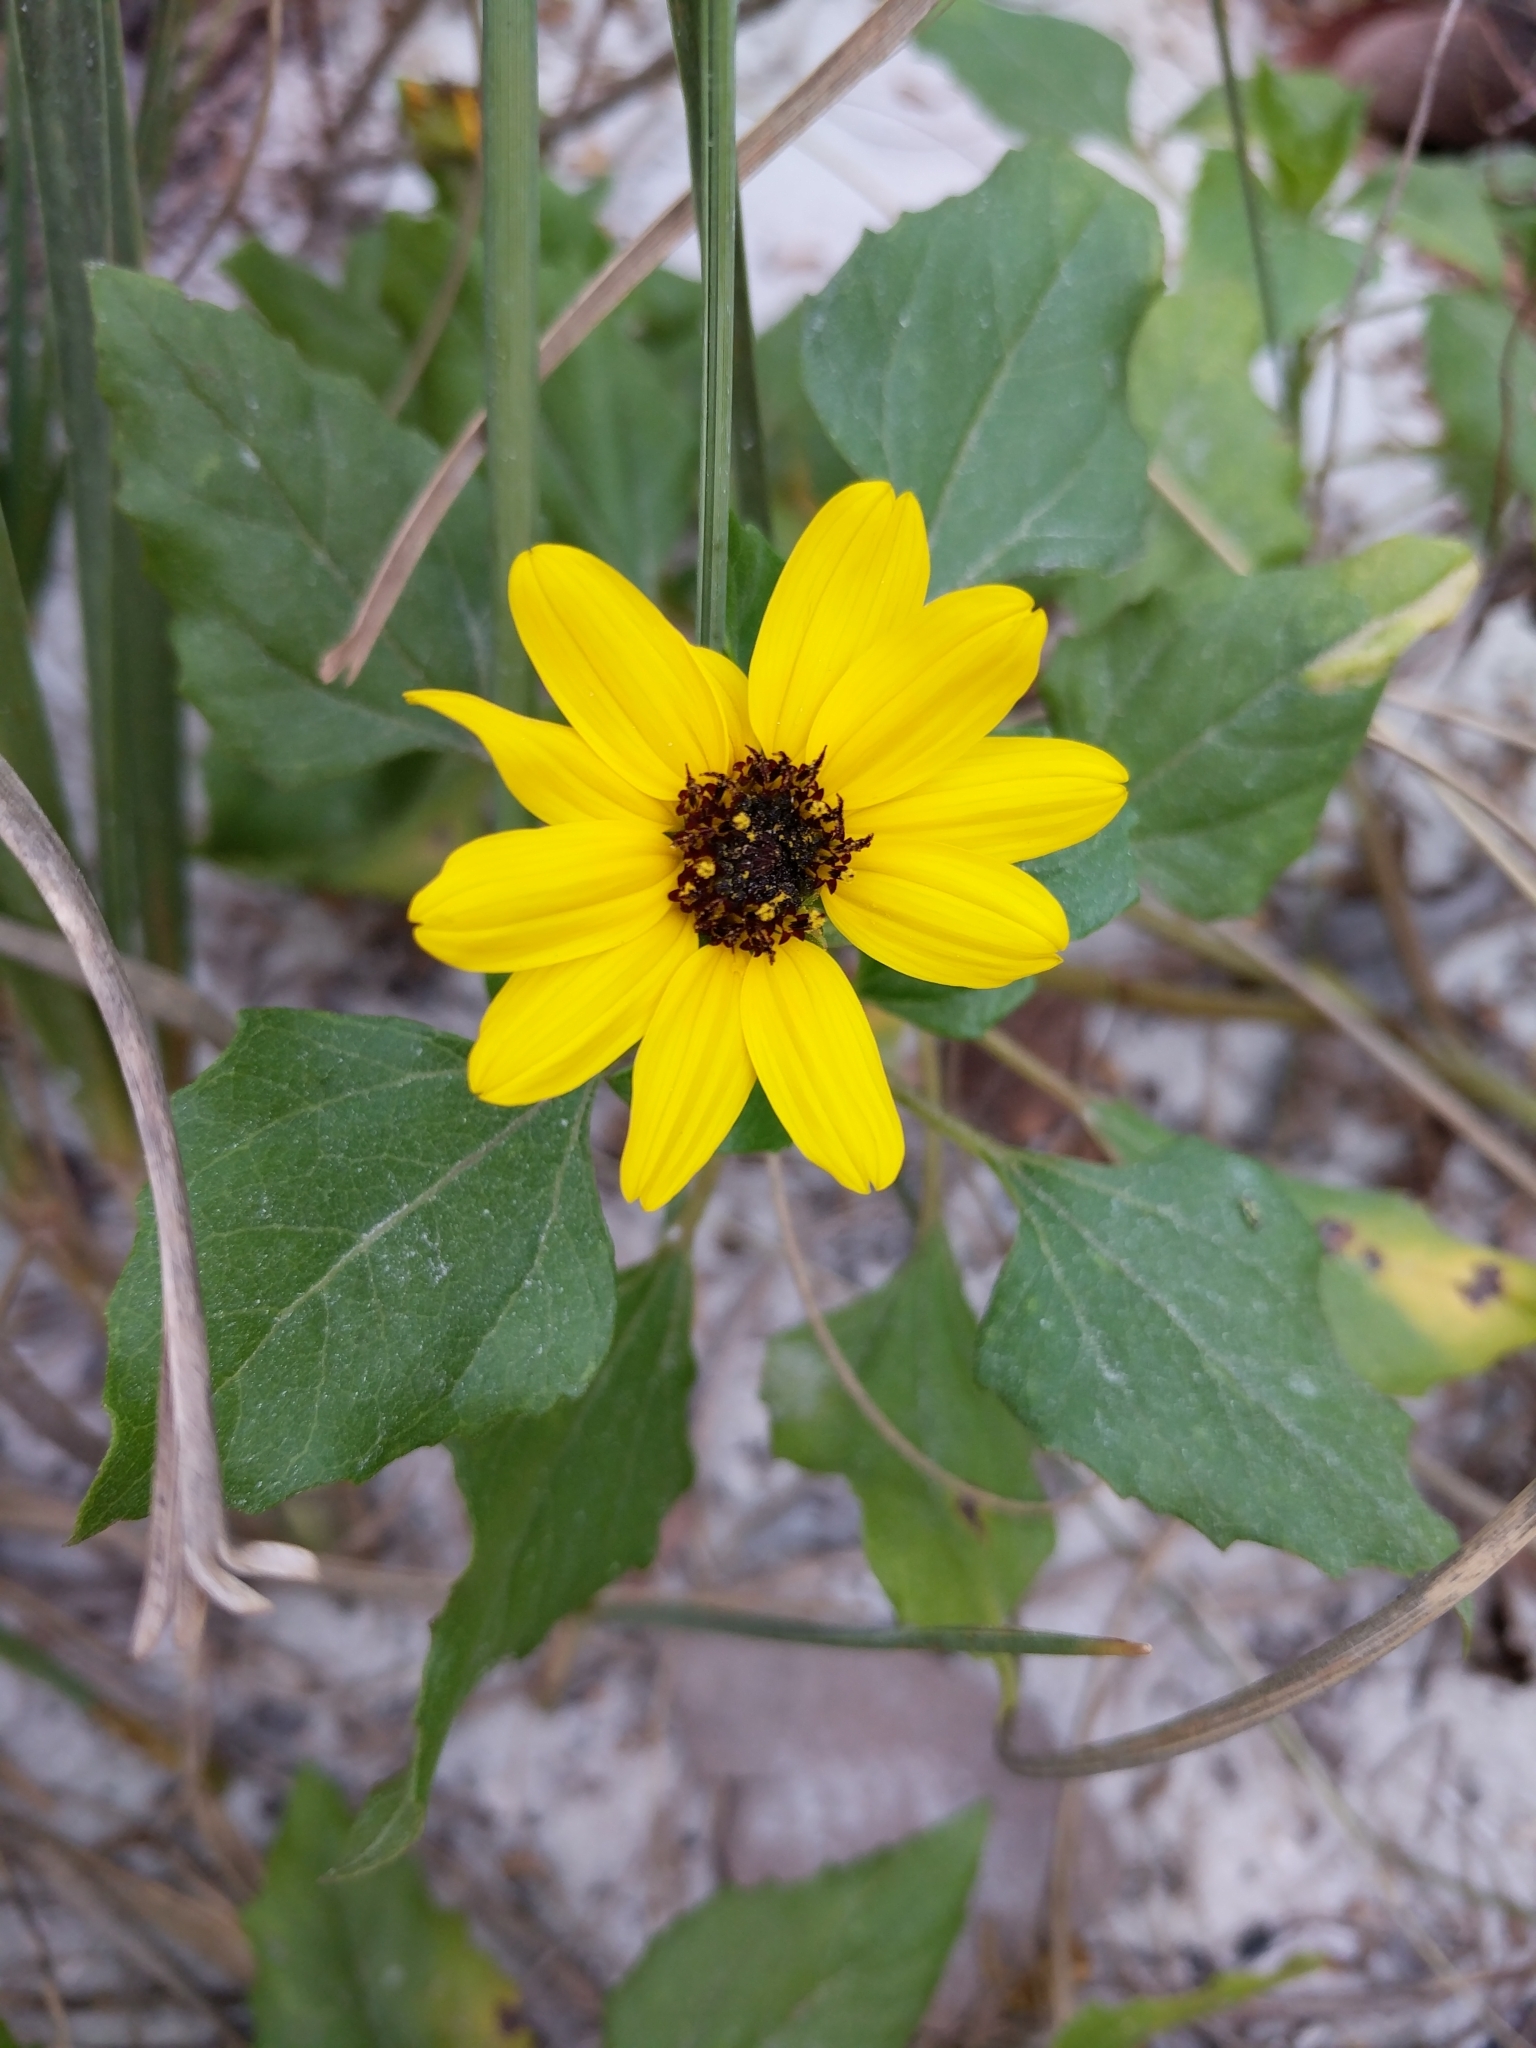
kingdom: Plantae
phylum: Tracheophyta
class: Magnoliopsida
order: Asterales
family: Asteraceae
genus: Helianthus
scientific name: Helianthus debilis
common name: Weak sunflower
